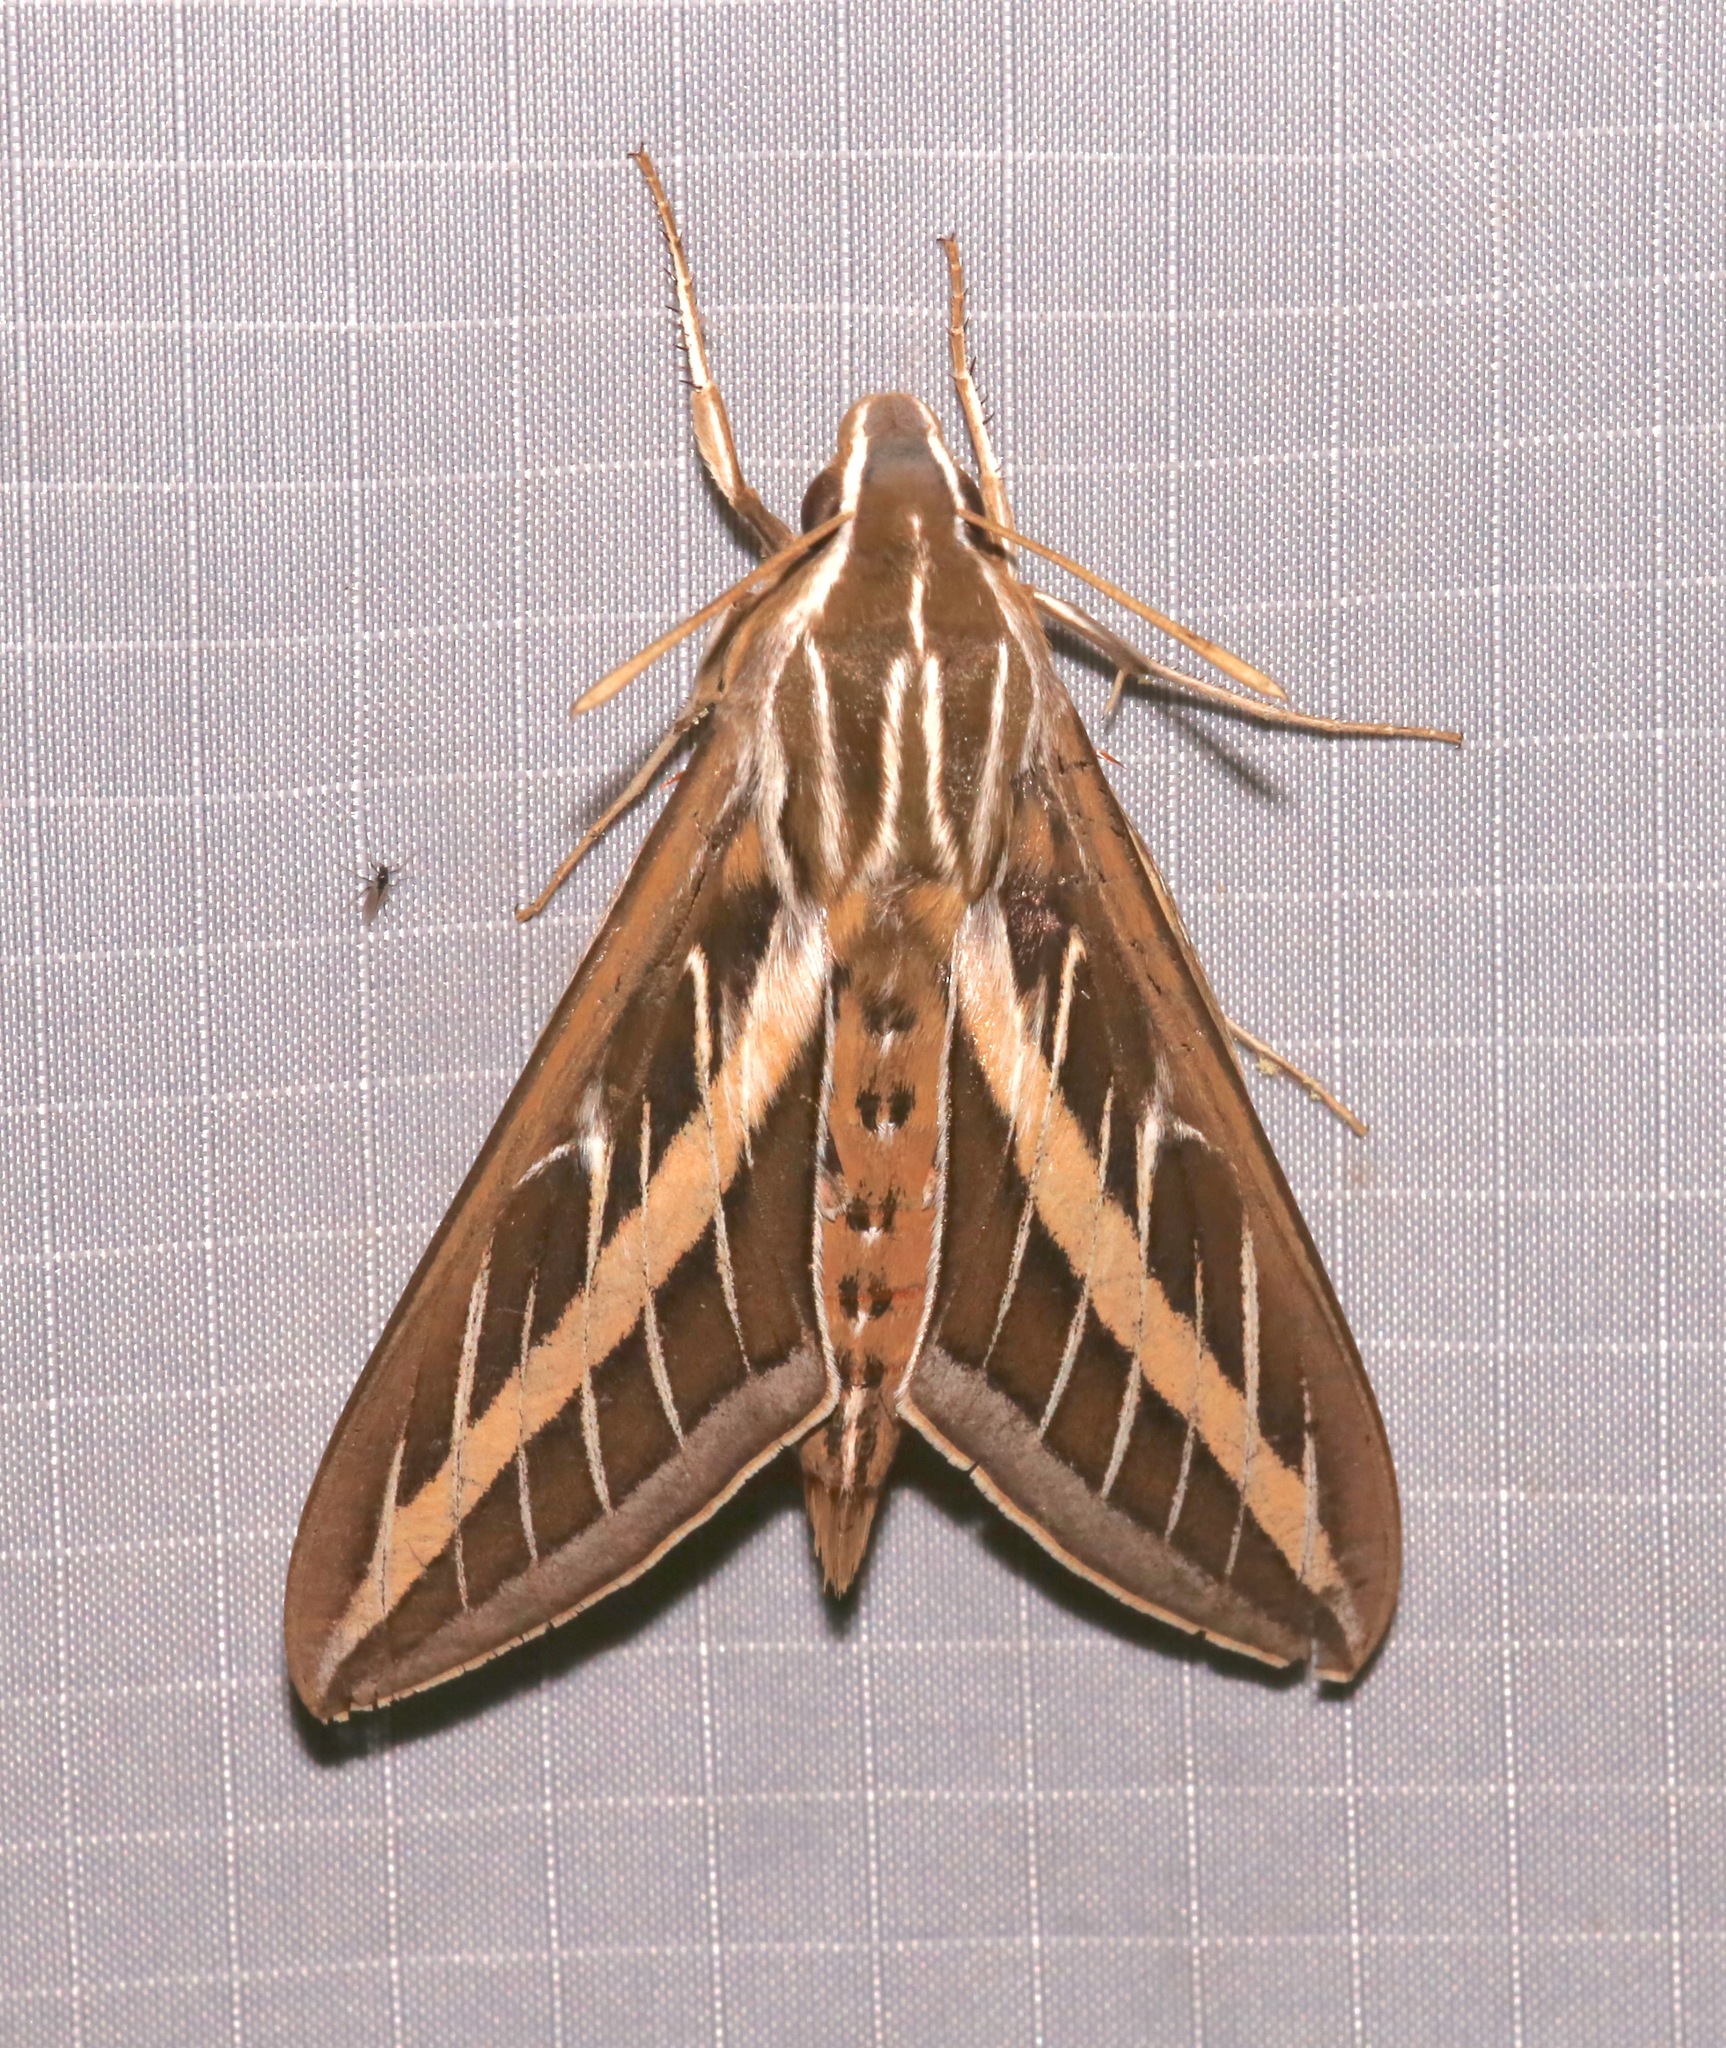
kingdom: Animalia
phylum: Arthropoda
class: Insecta
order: Lepidoptera
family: Sphingidae
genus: Hyles
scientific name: Hyles lineata
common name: White-lined sphinx
